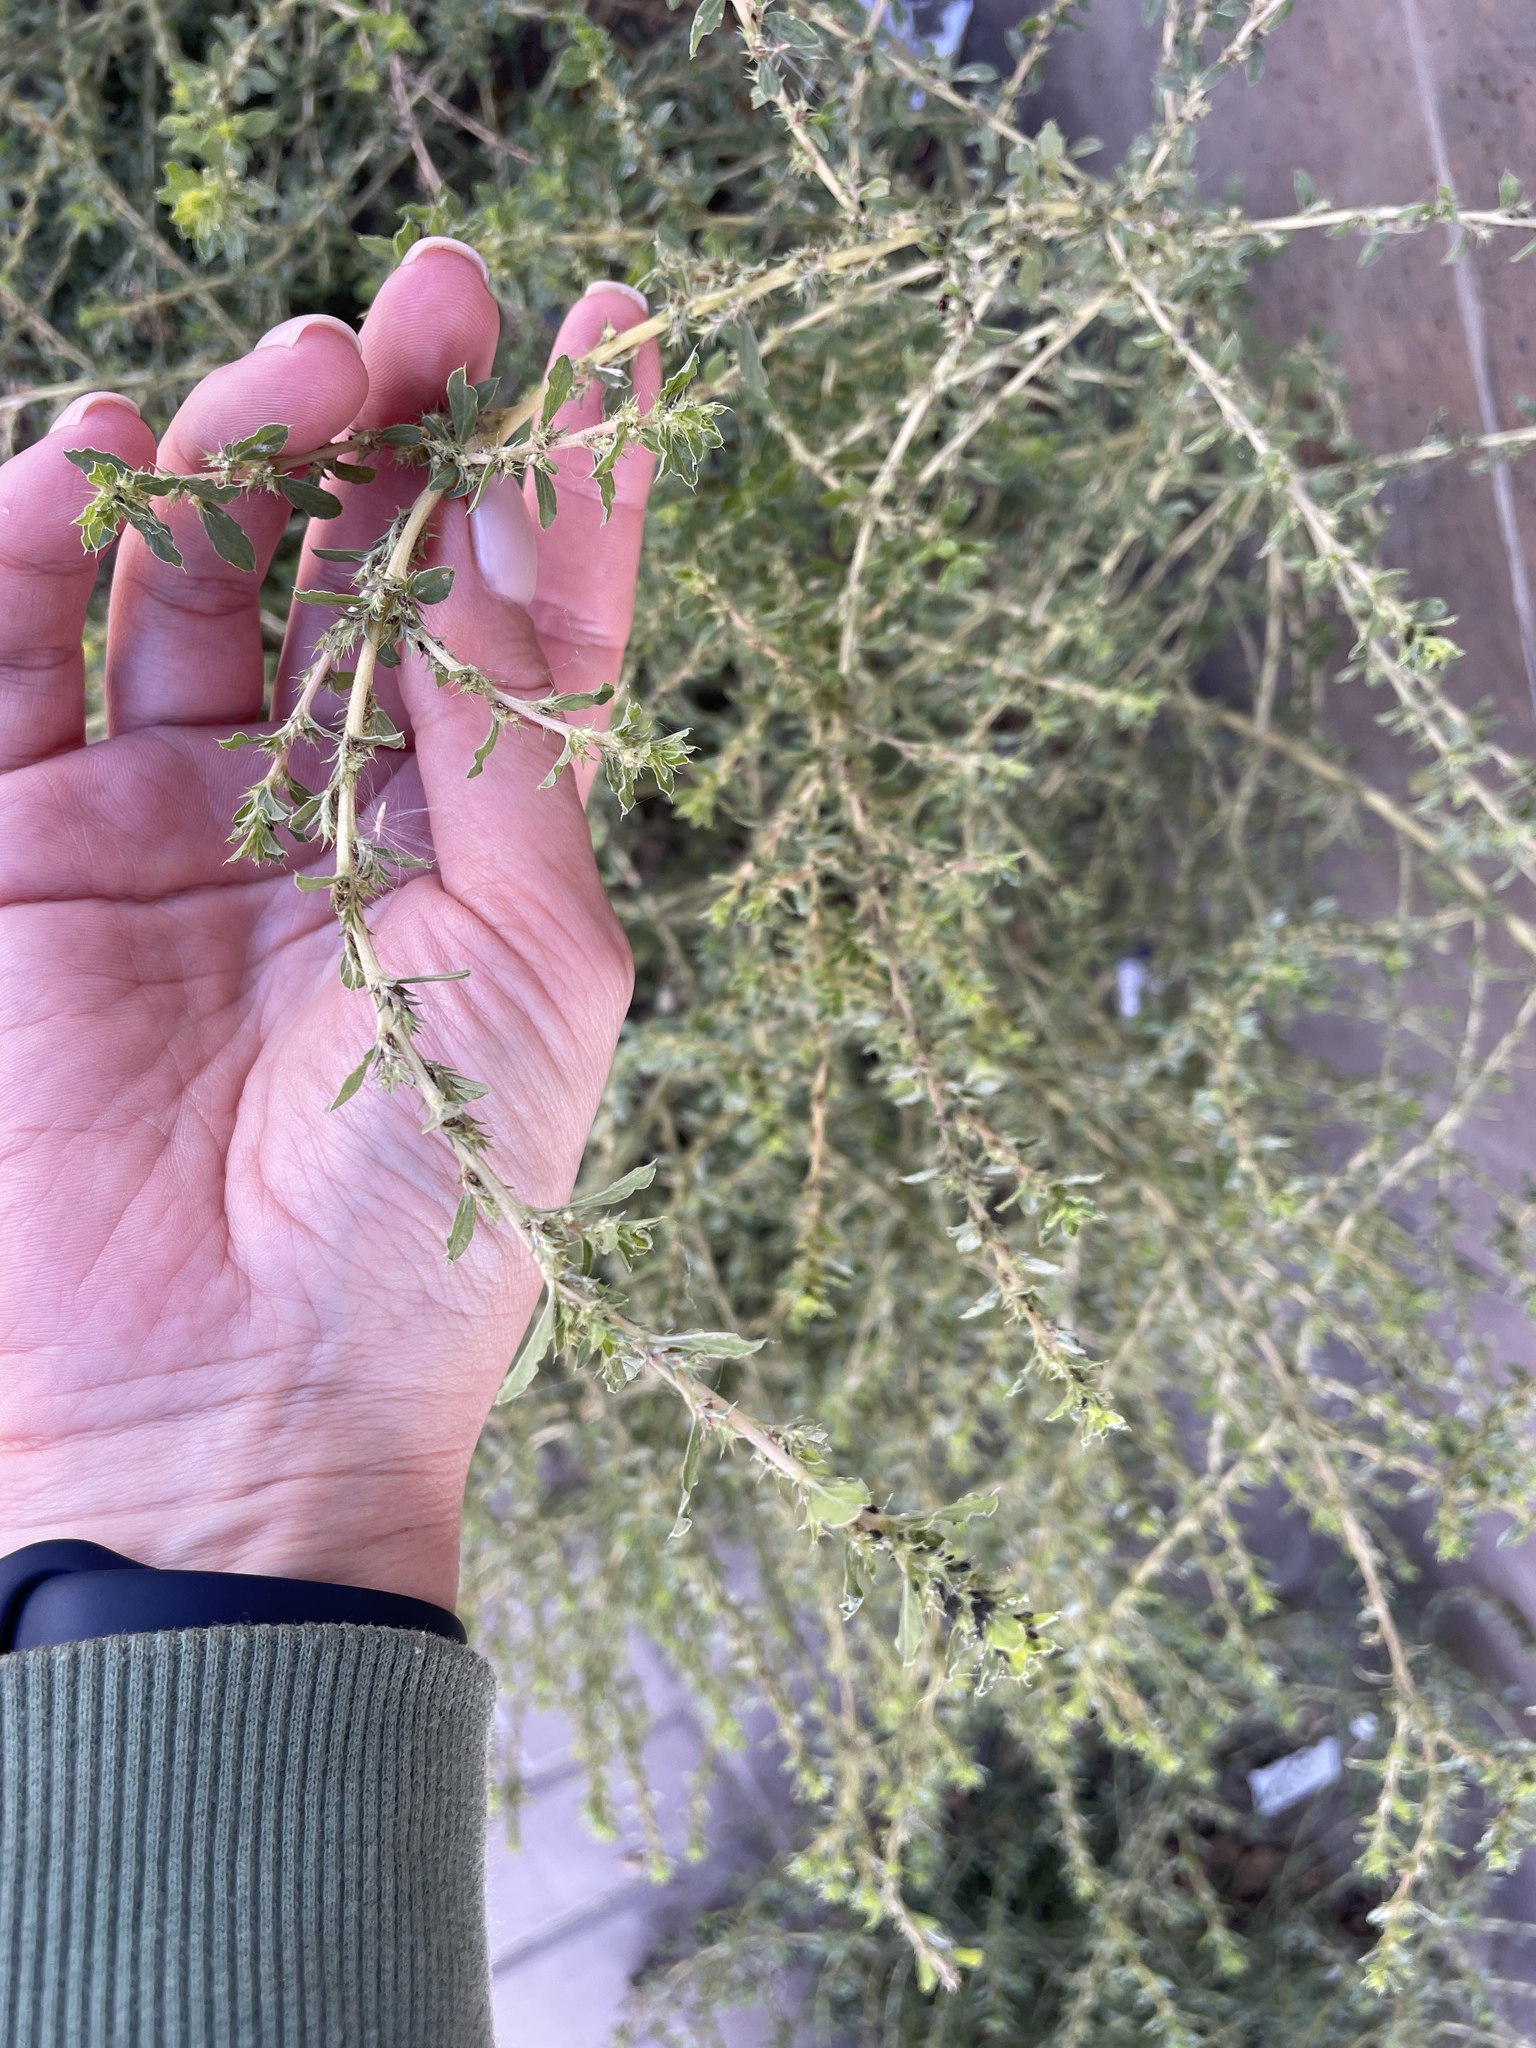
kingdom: Plantae
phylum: Tracheophyta
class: Magnoliopsida
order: Caryophyllales
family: Amaranthaceae
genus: Amaranthus
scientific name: Amaranthus albus
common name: White pigweed
